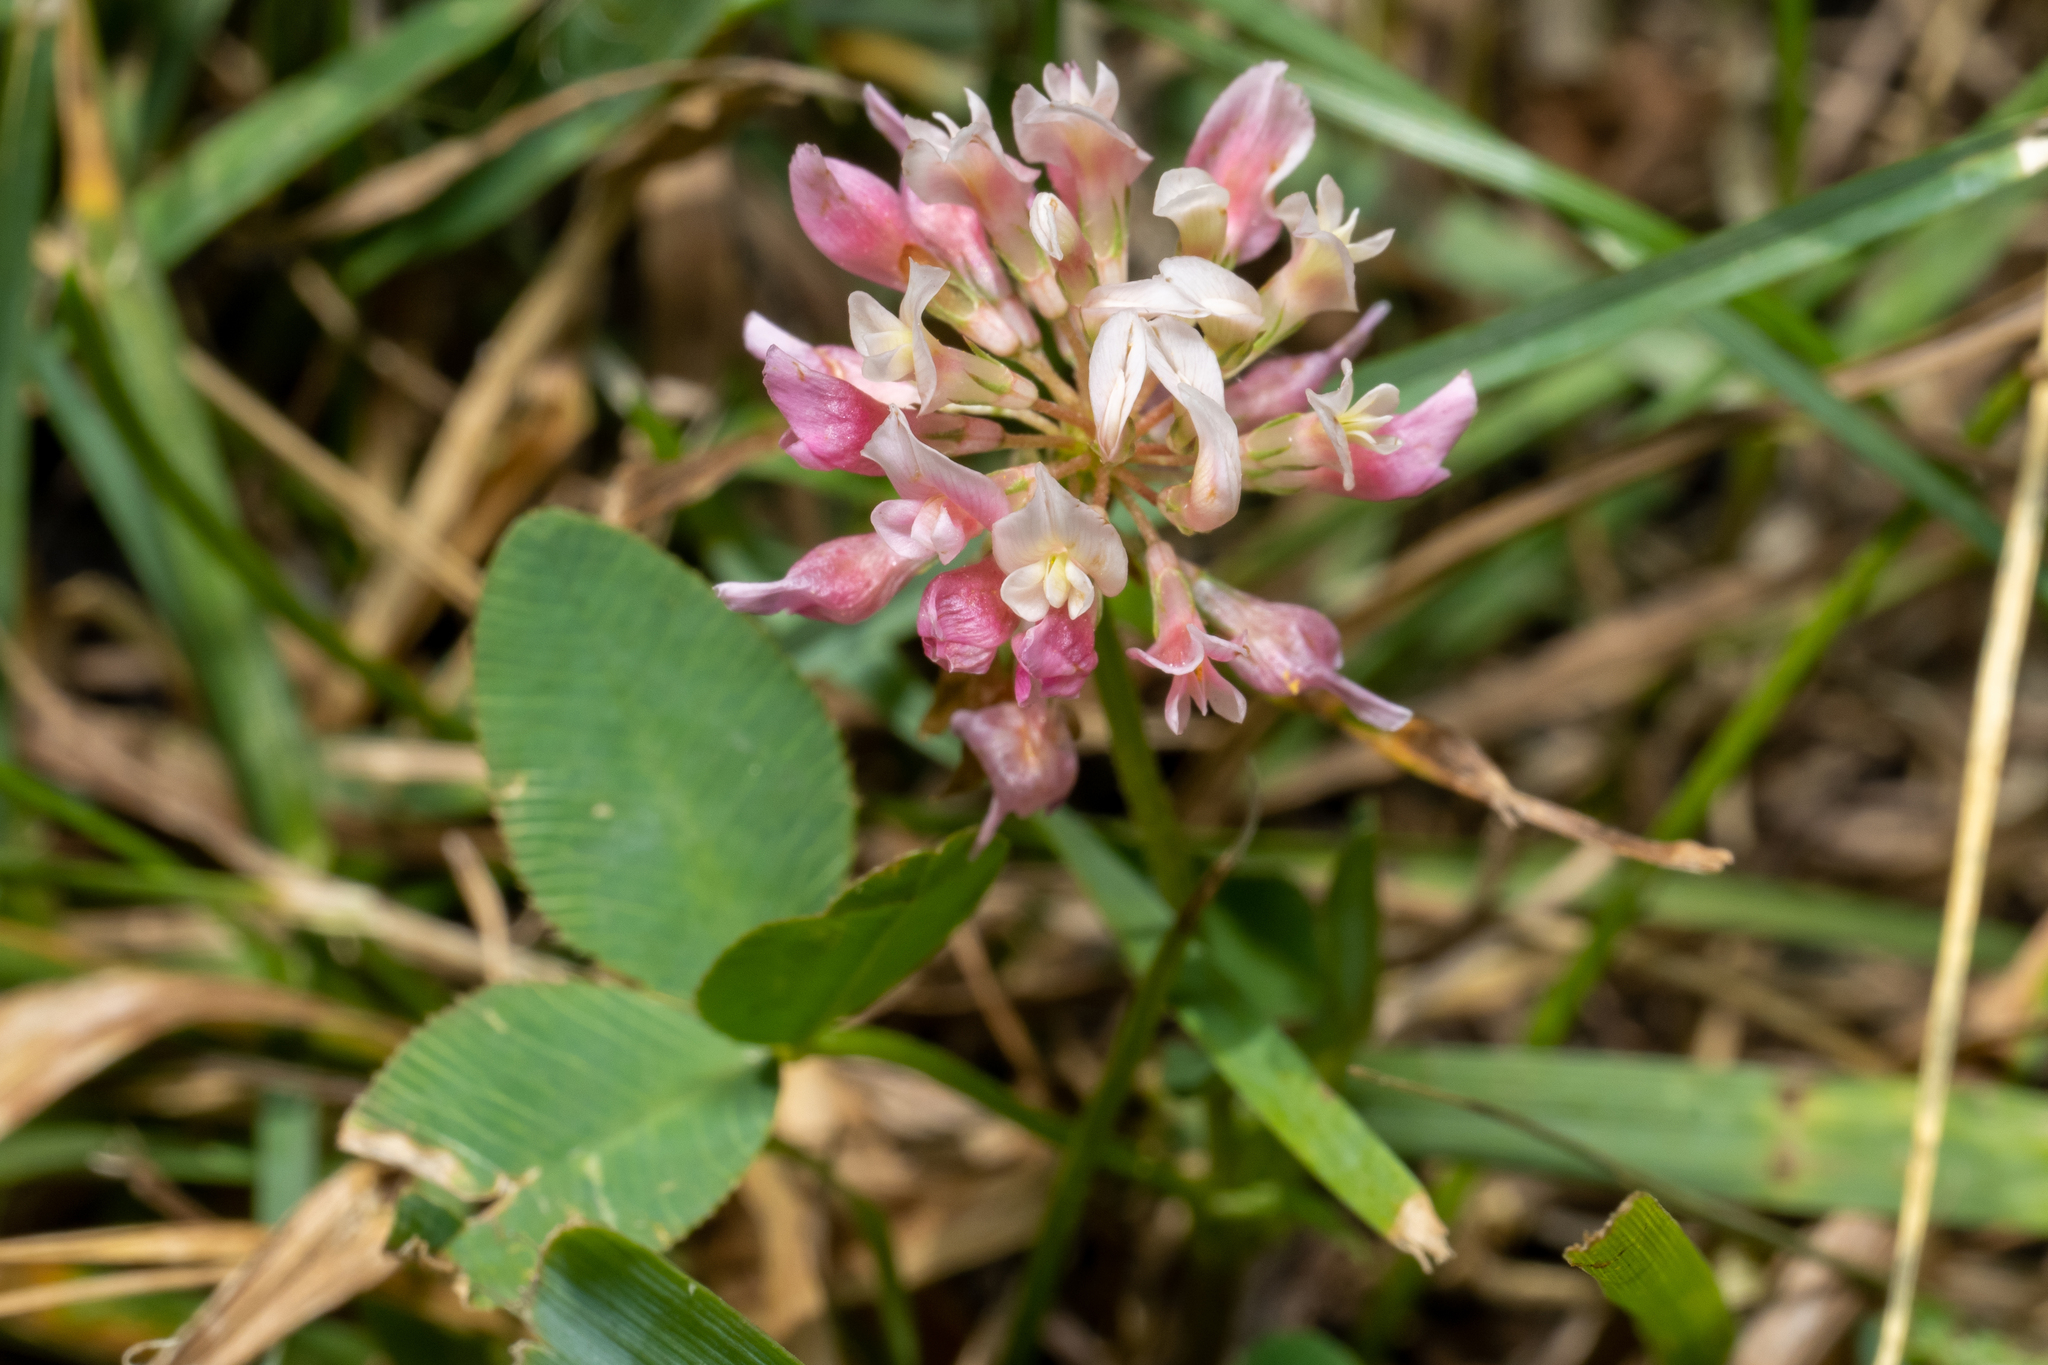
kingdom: Plantae
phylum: Tracheophyta
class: Magnoliopsida
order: Fabales
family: Fabaceae
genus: Trifolium
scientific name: Trifolium hybridum
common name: Alsike clover
